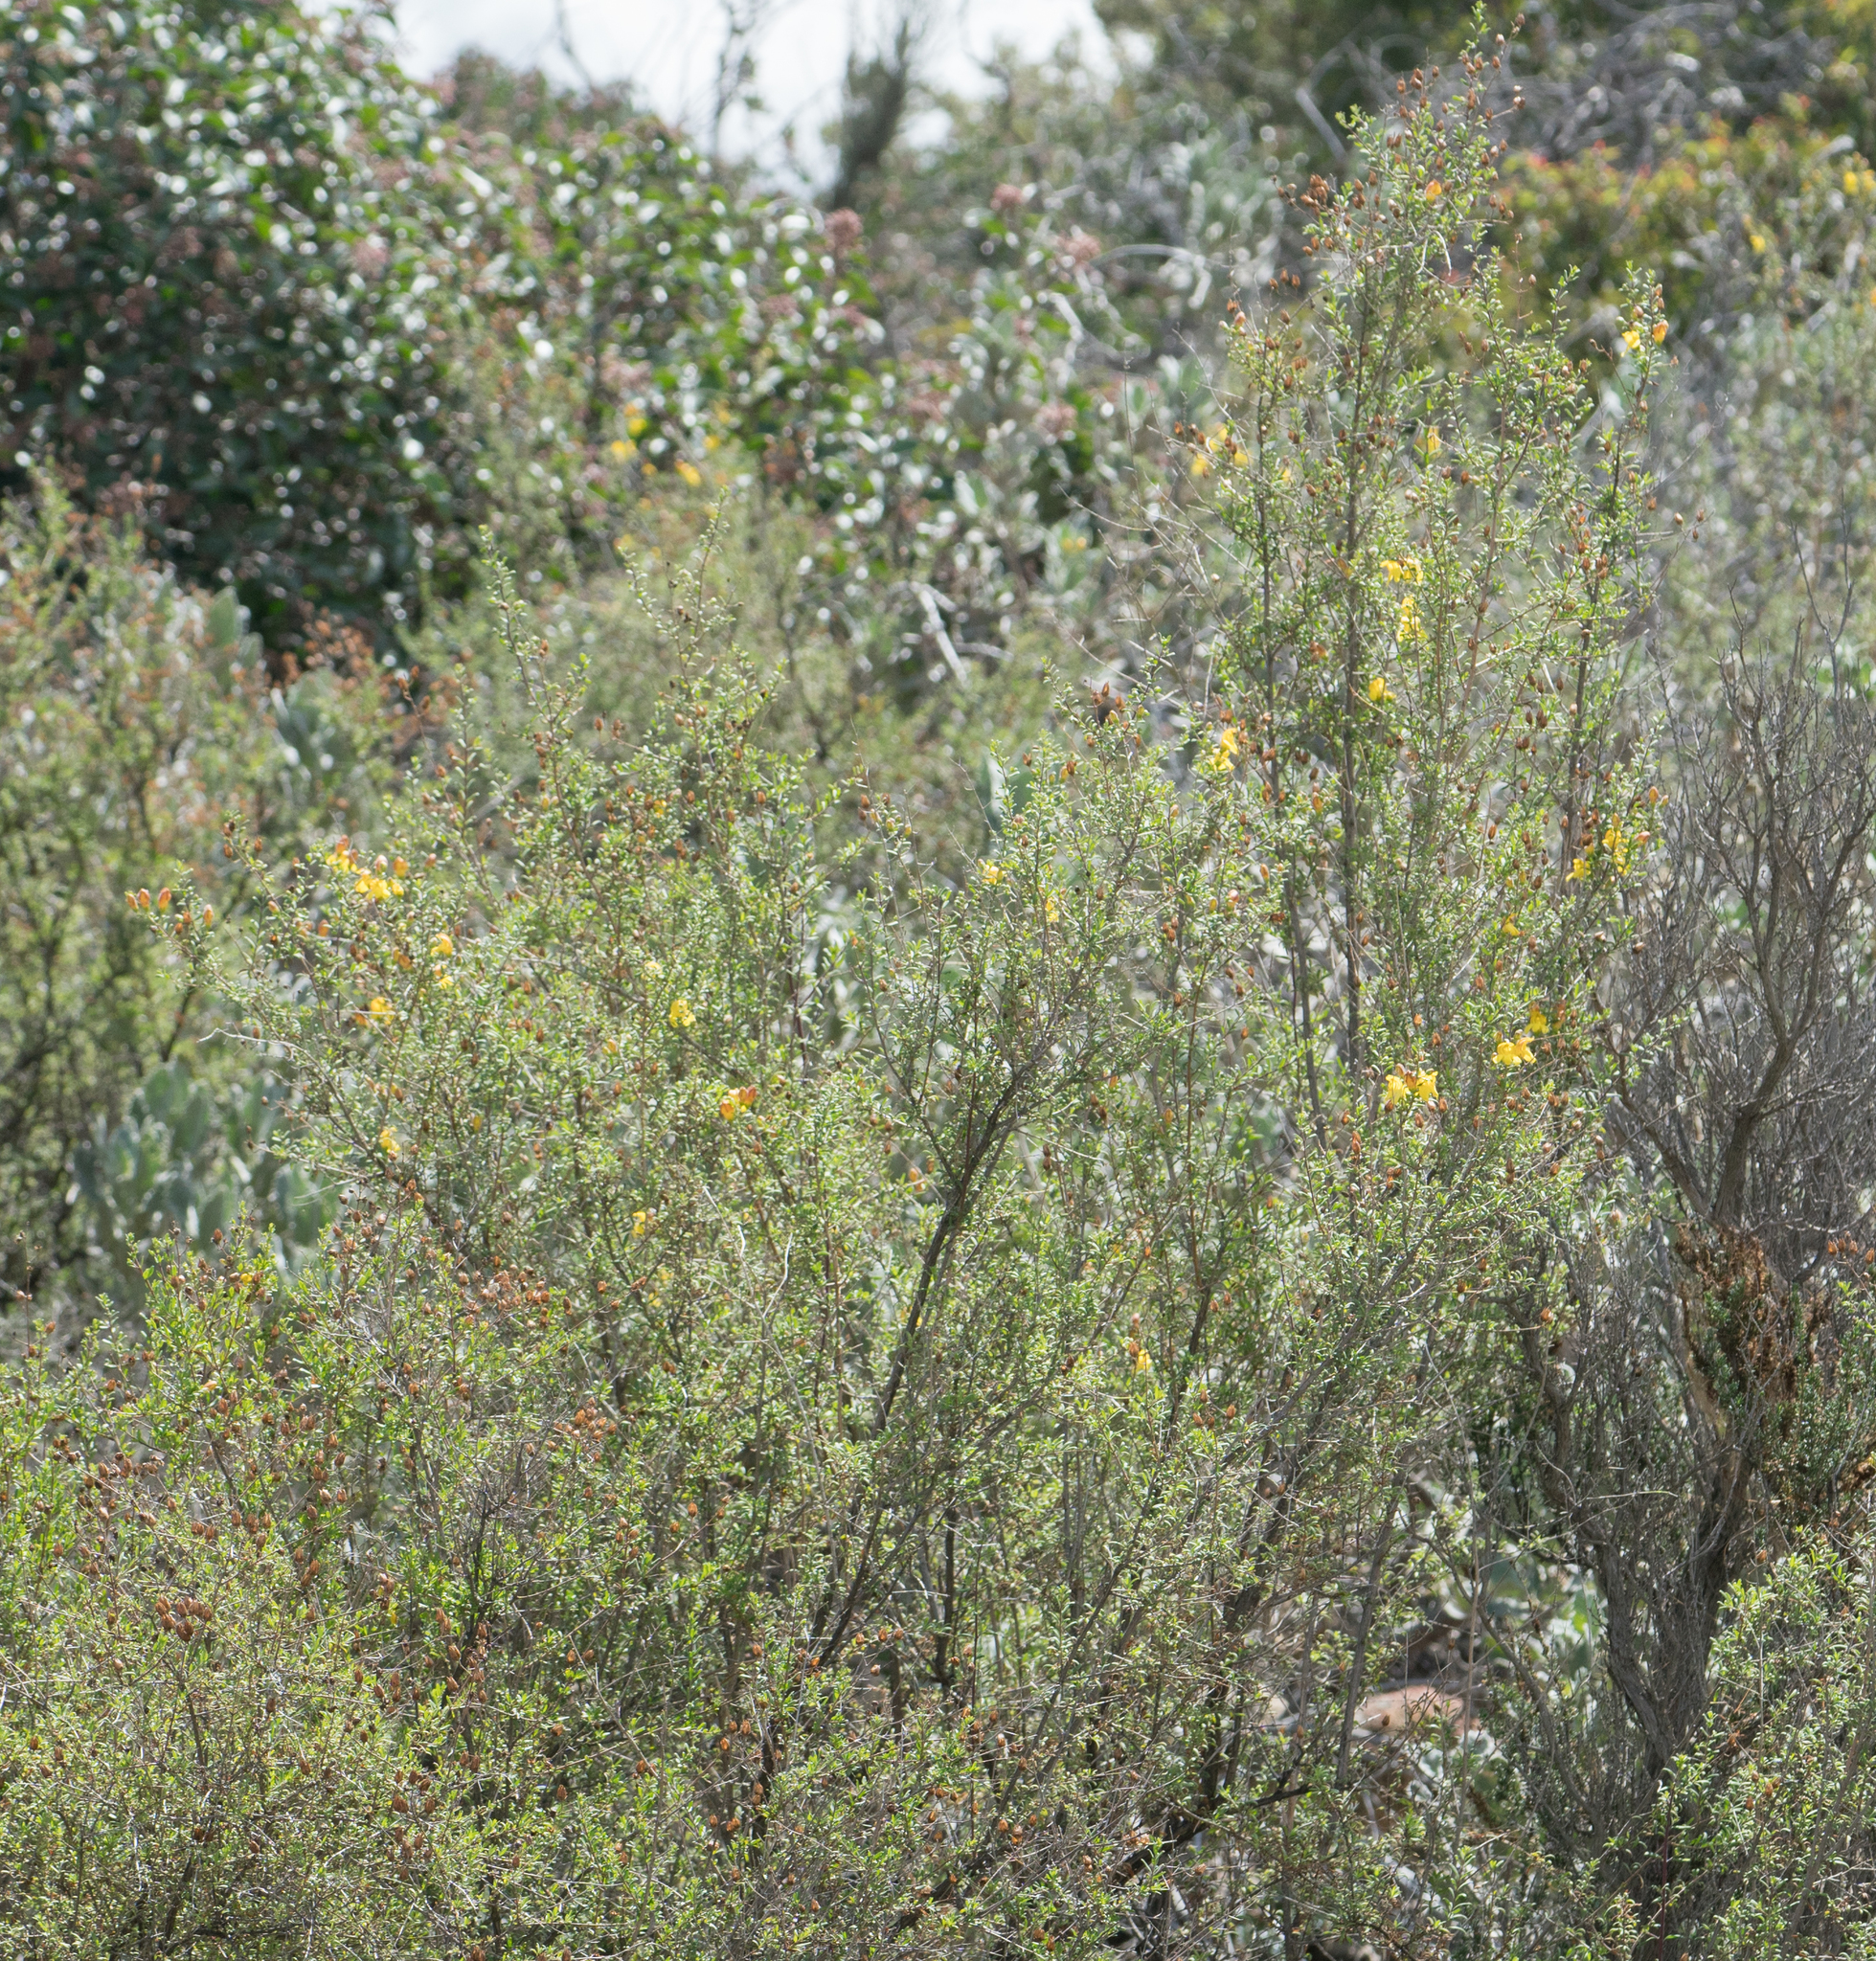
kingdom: Plantae
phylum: Tracheophyta
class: Magnoliopsida
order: Lamiales
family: Plantaginaceae
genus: Keckiella
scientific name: Keckiella antirrhinoides
